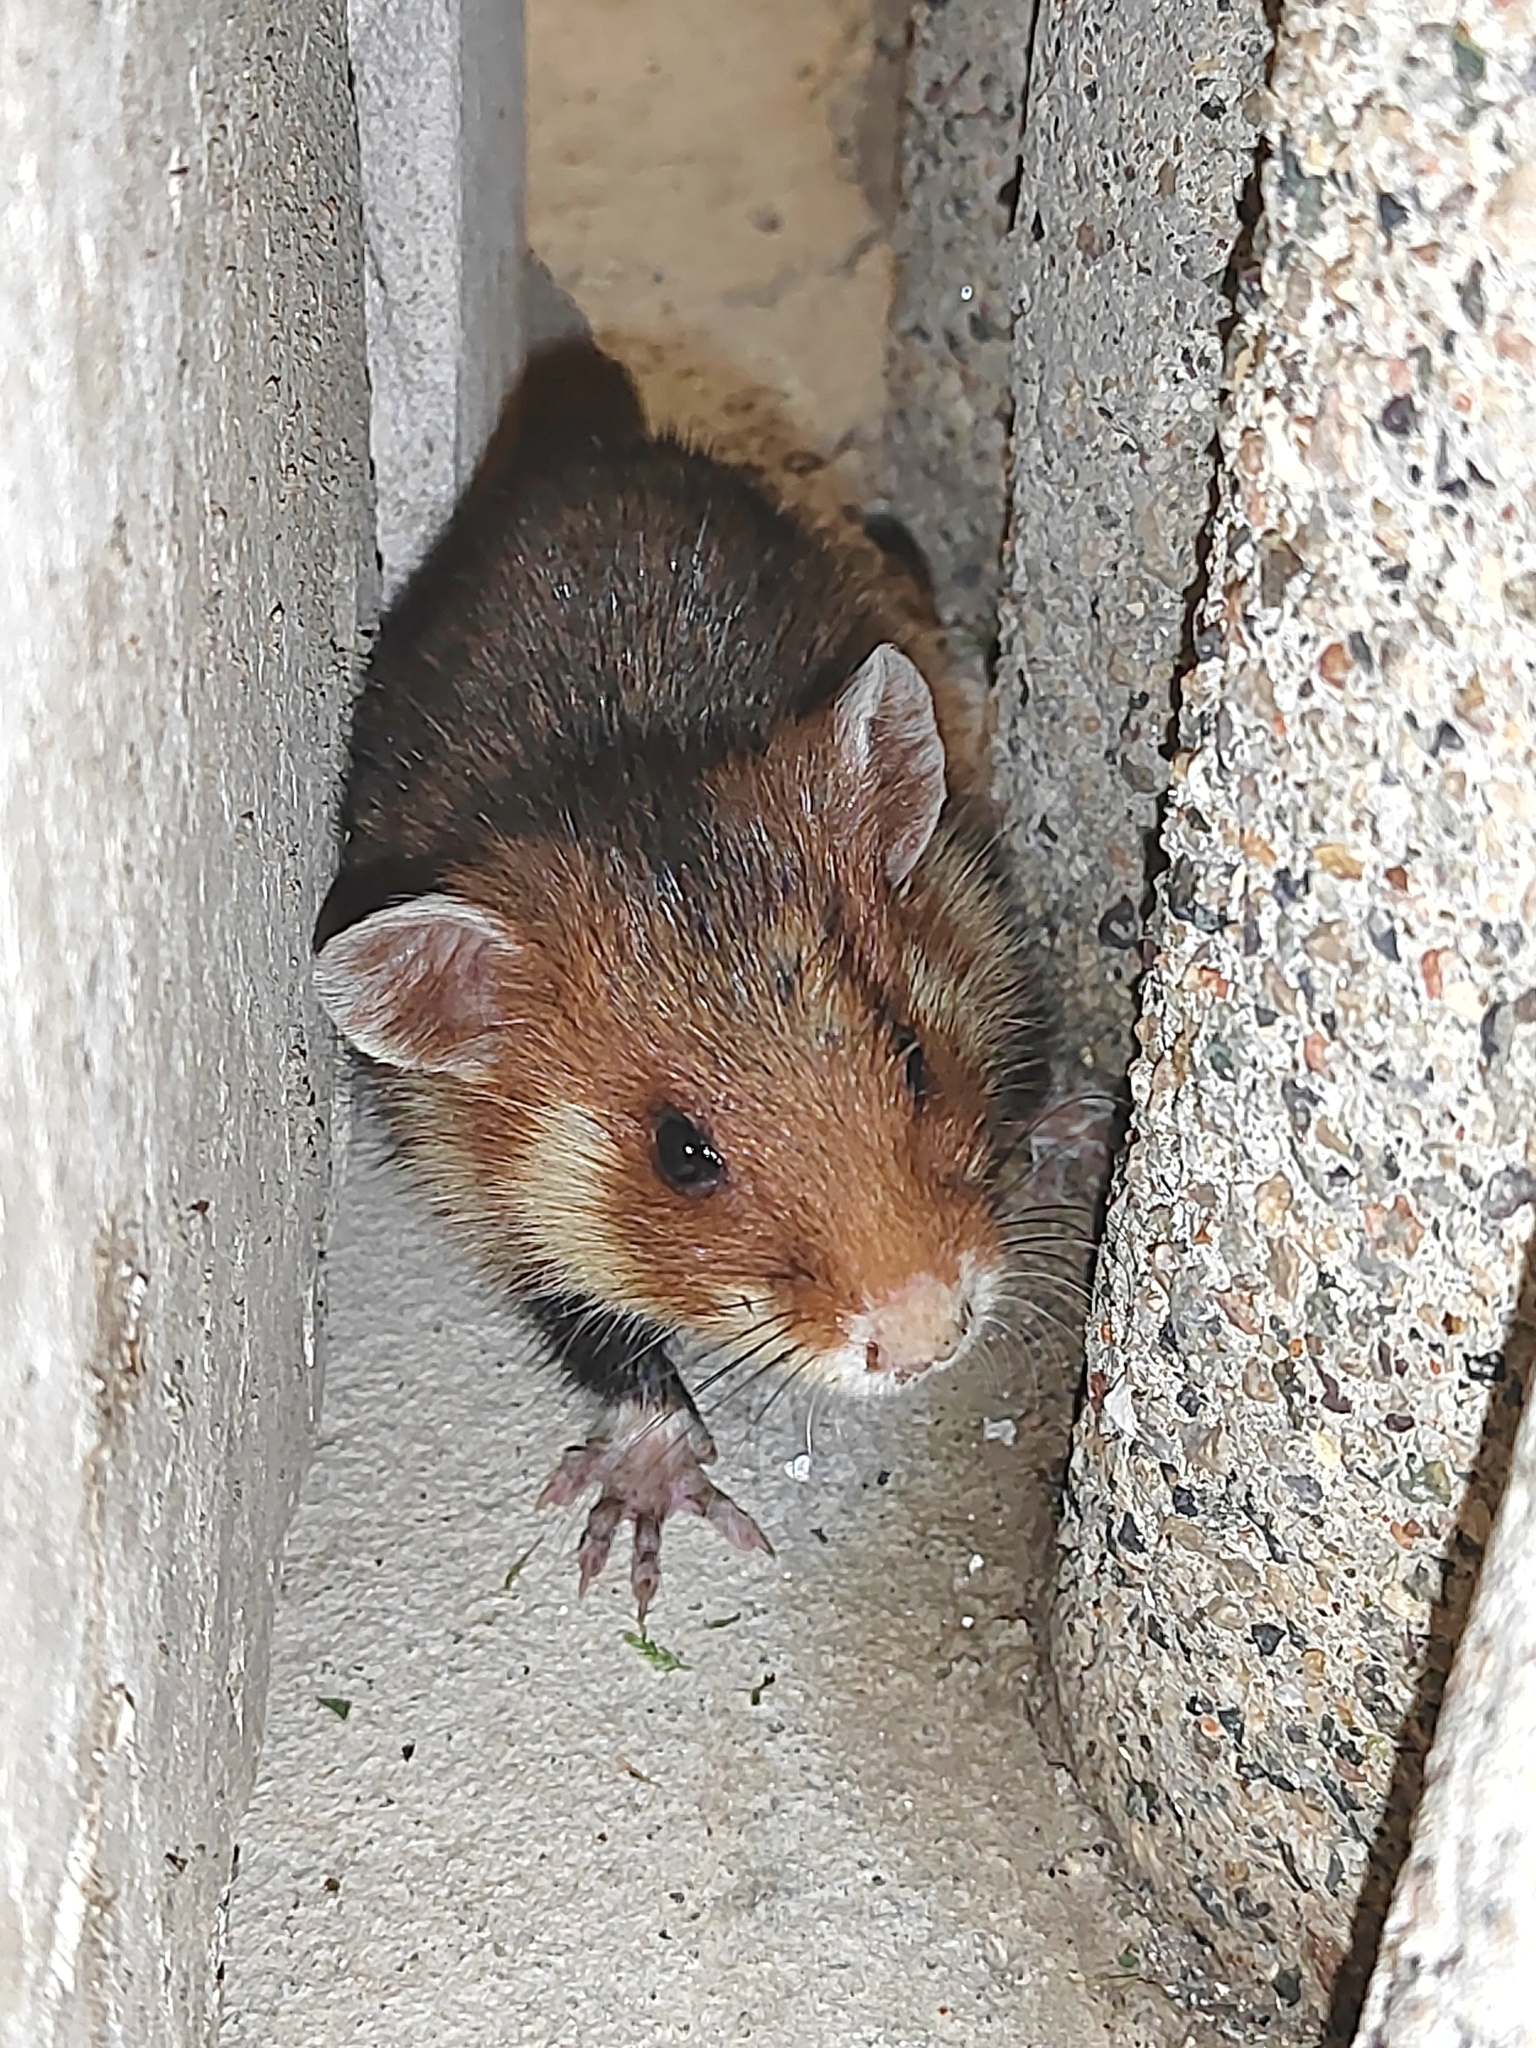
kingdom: Animalia
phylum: Chordata
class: Mammalia
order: Rodentia
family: Cricetidae
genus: Cricetus
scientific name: Cricetus cricetus
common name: Common hamster
